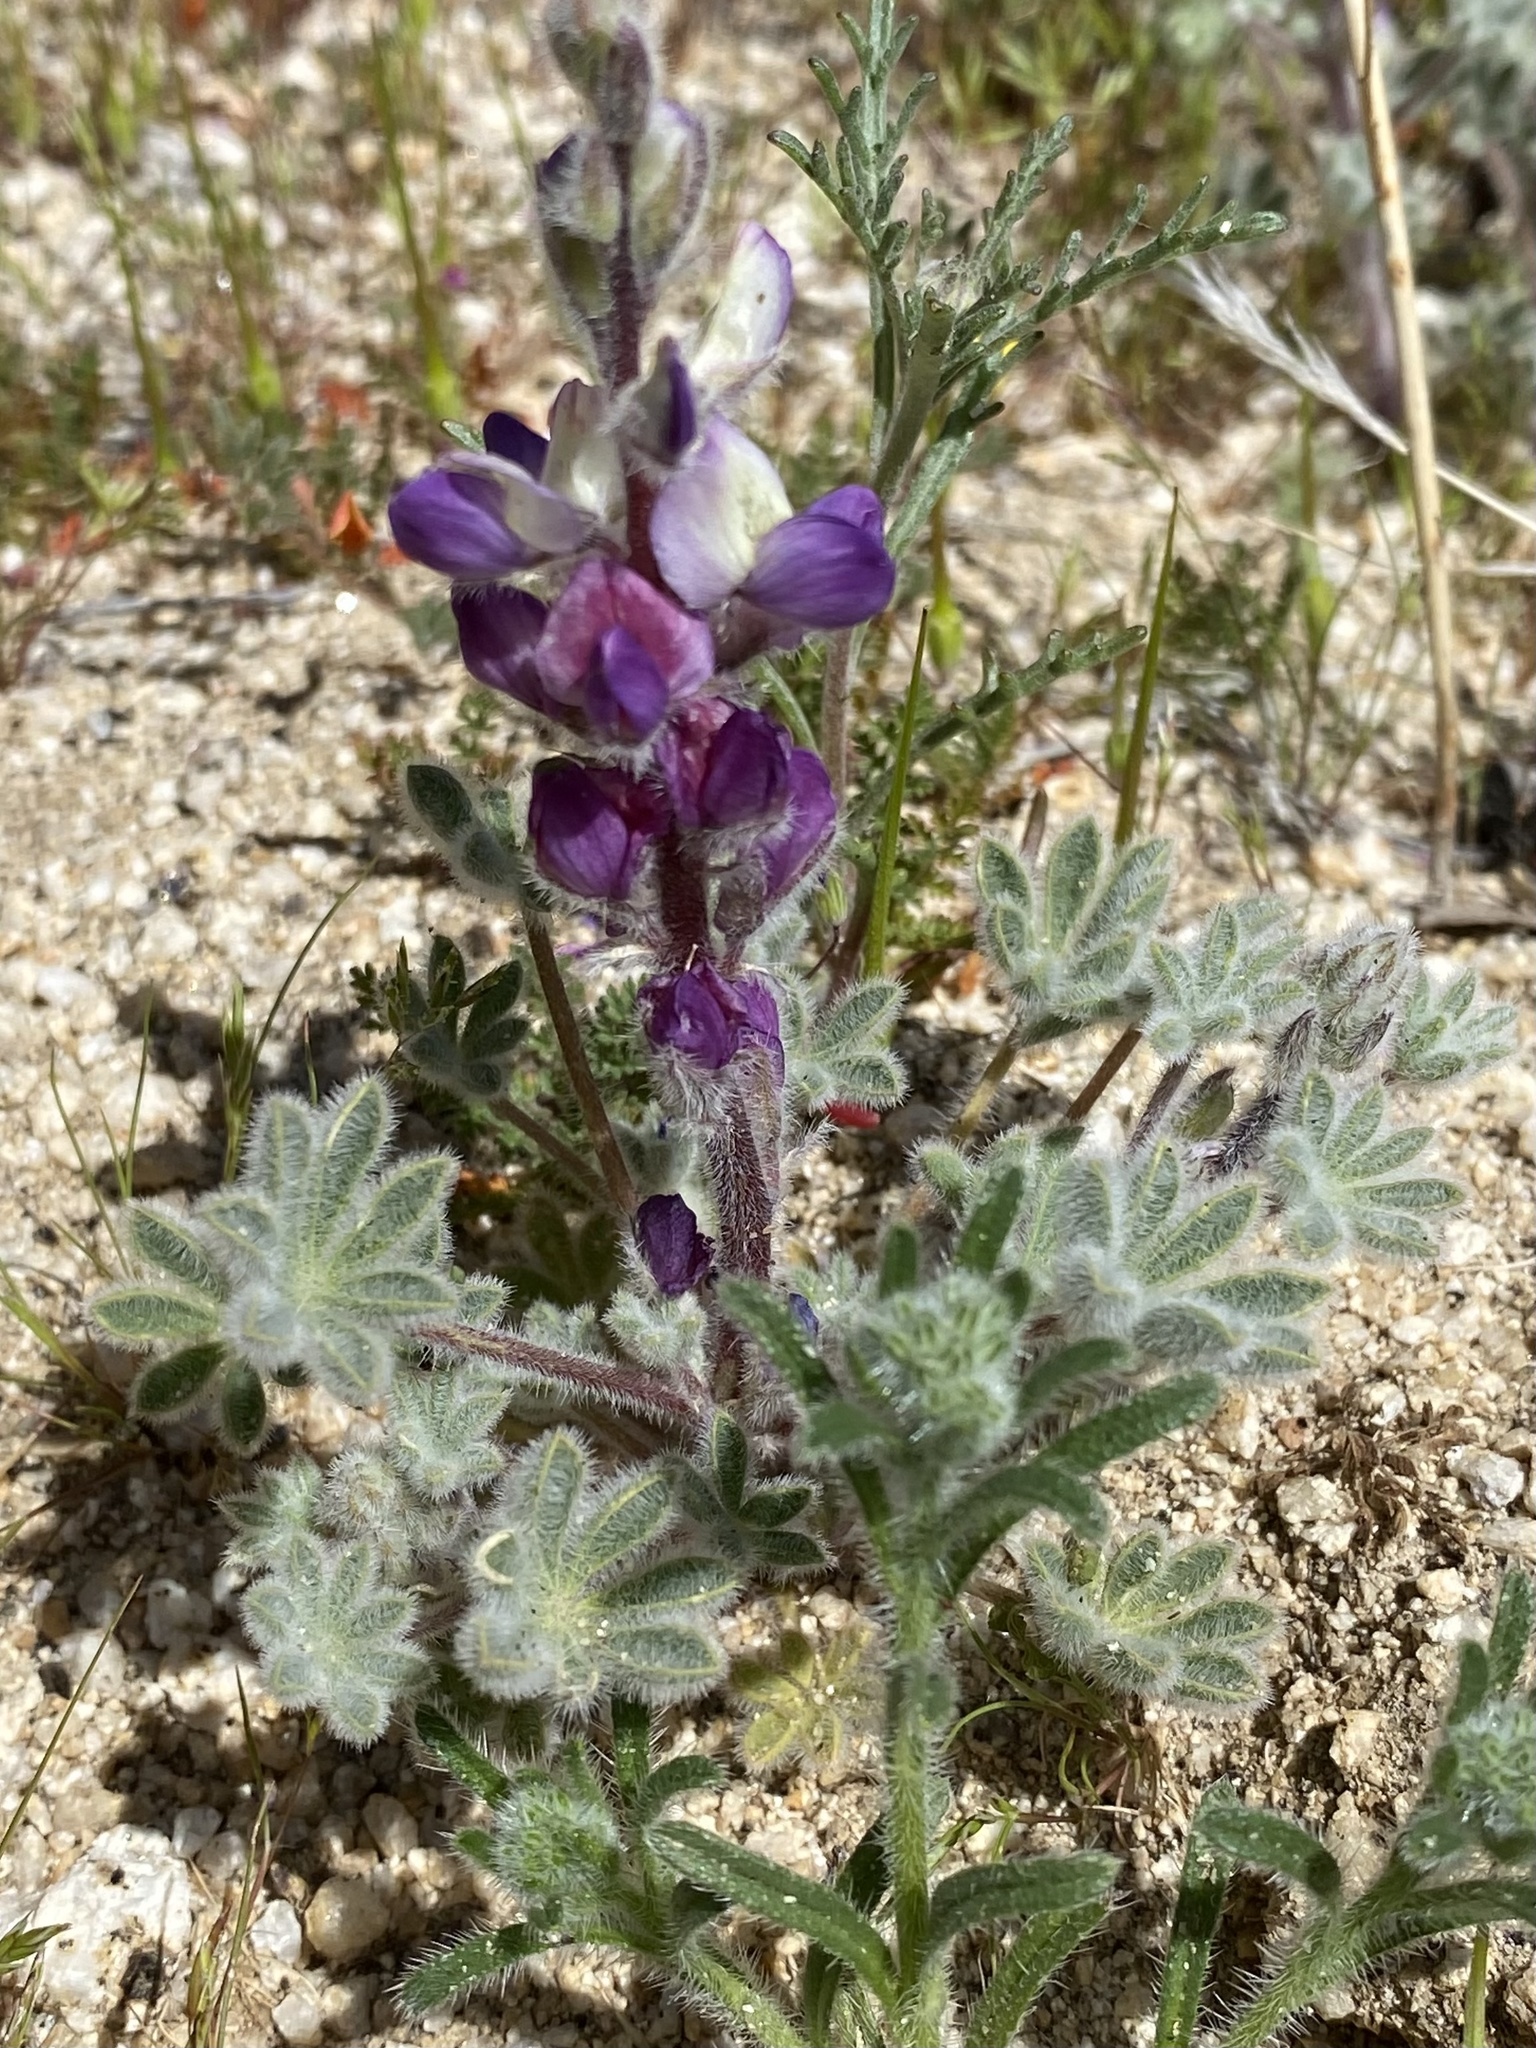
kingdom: Plantae
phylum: Tracheophyta
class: Magnoliopsida
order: Fabales
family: Fabaceae
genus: Lupinus
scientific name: Lupinus concinnus
